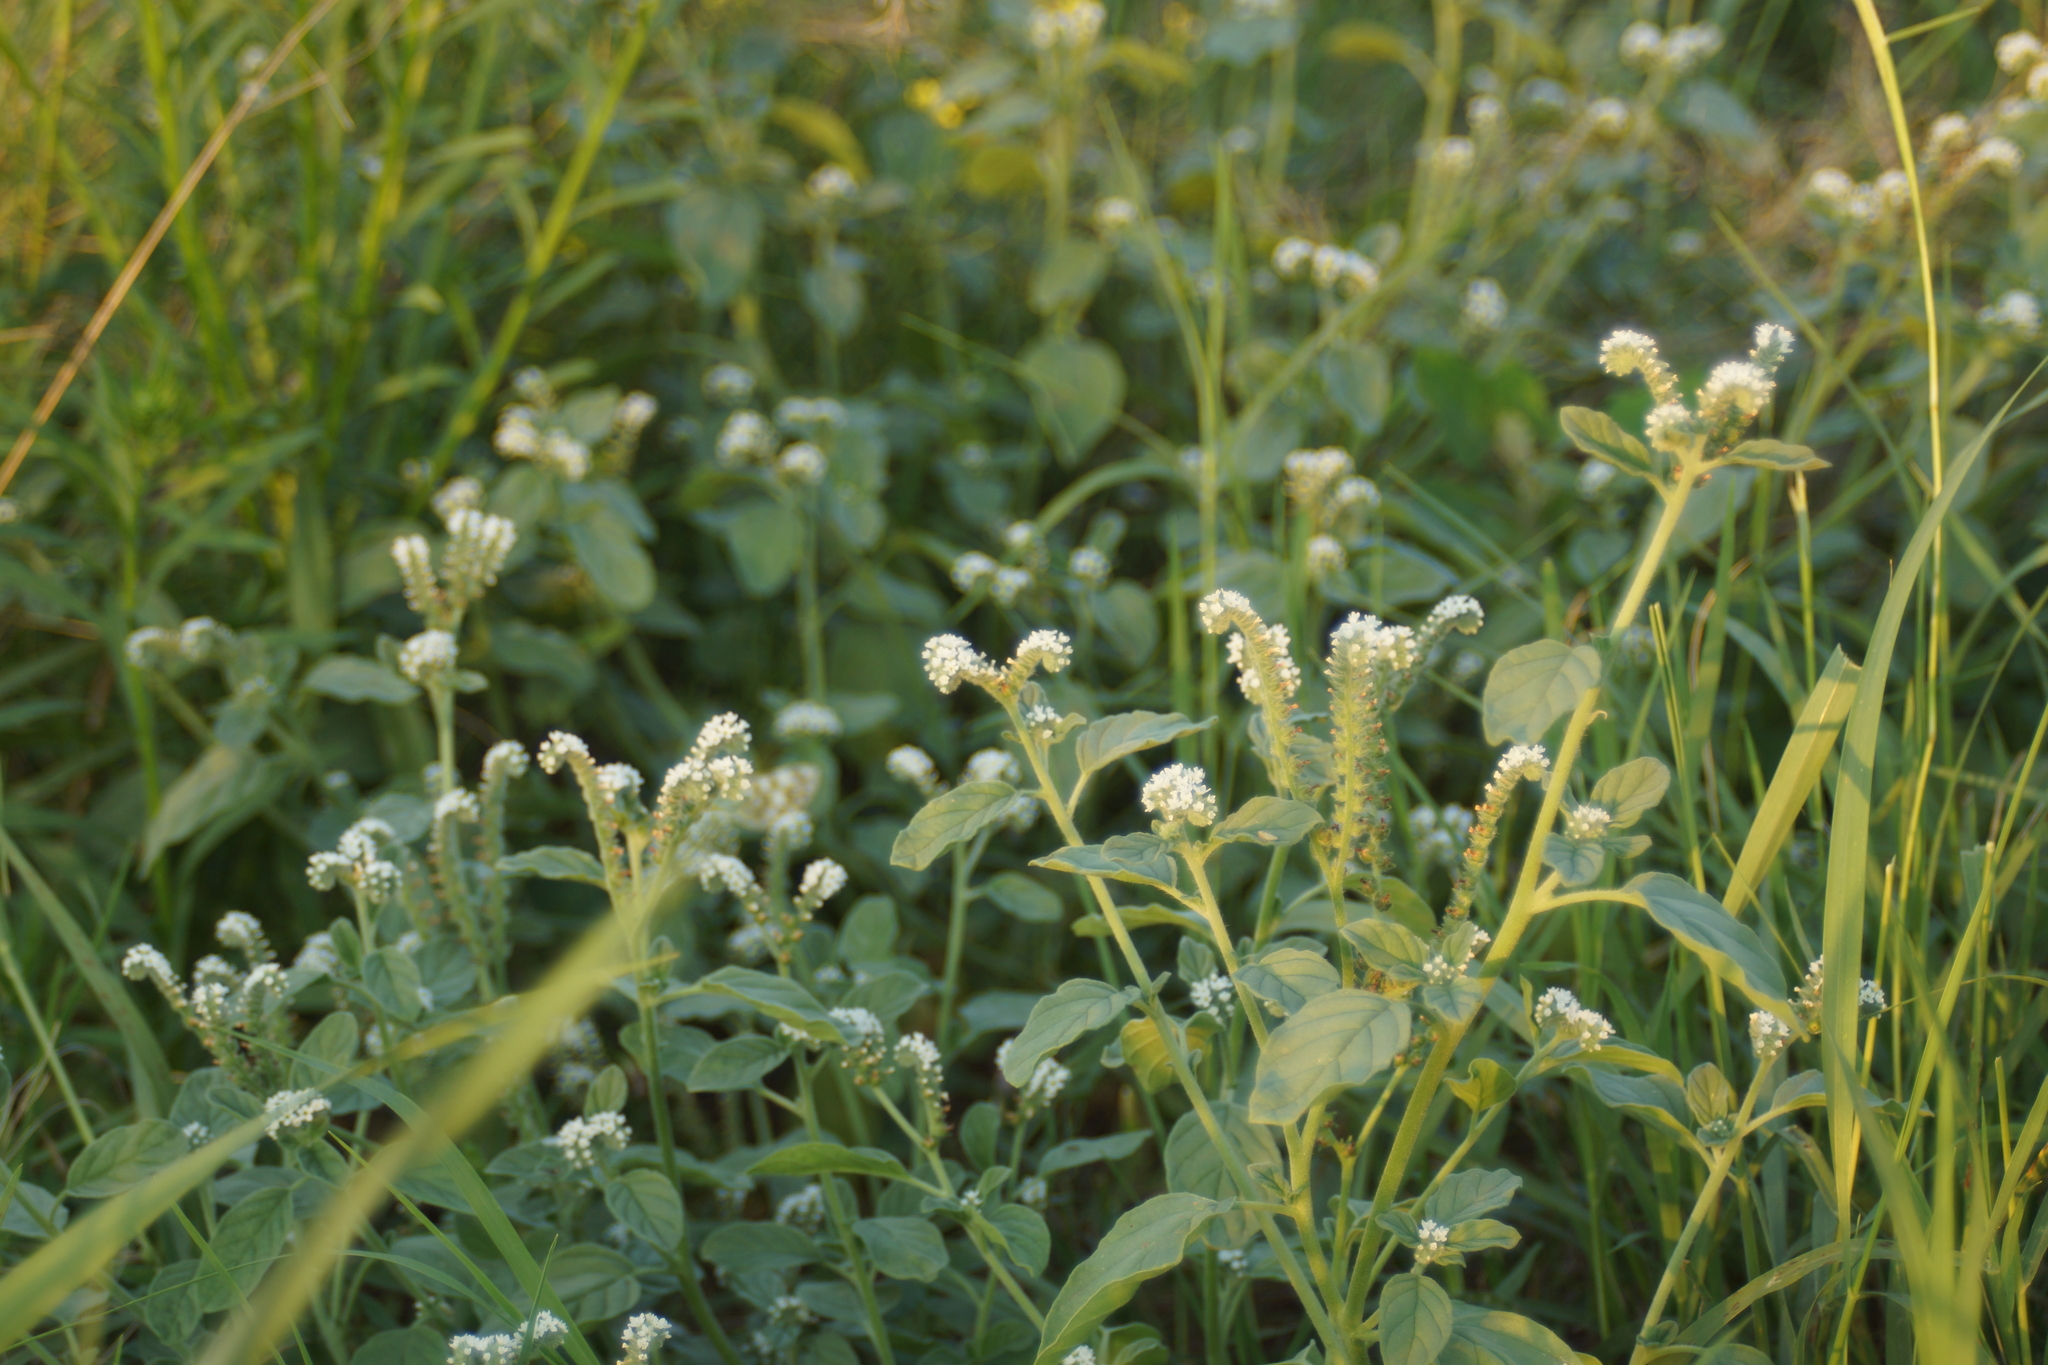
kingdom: Plantae
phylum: Tracheophyta
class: Magnoliopsida
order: Boraginales
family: Heliotropiaceae
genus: Heliotropium
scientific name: Heliotropium europaeum
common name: European heliotrope
